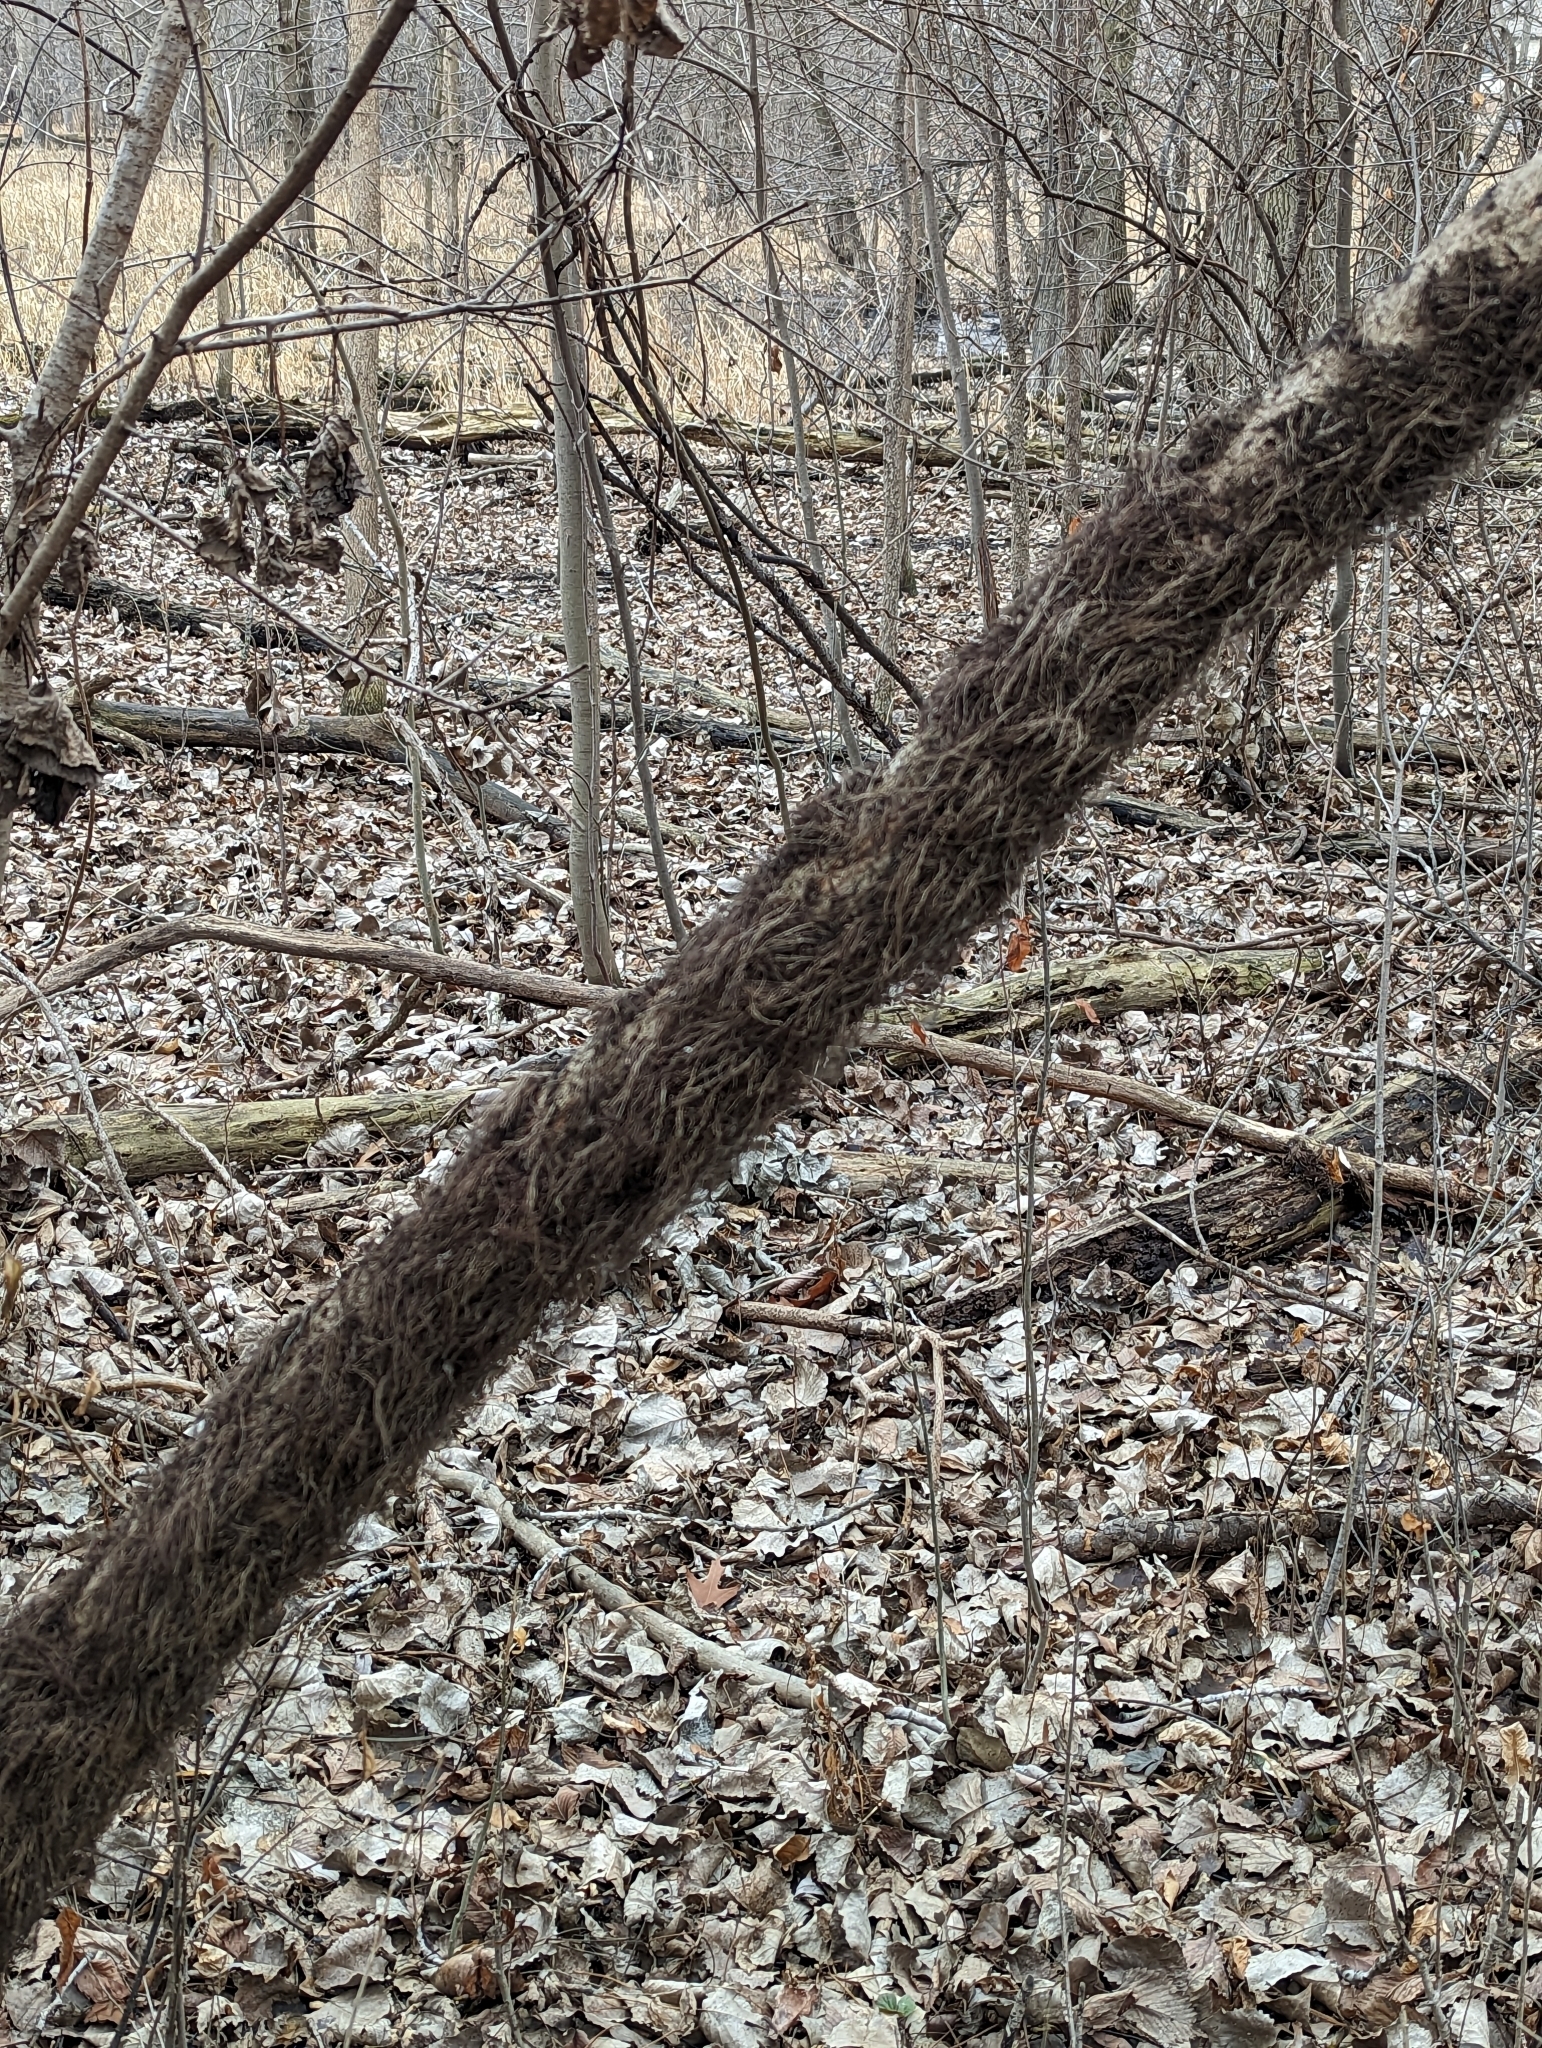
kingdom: Plantae
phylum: Tracheophyta
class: Magnoliopsida
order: Sapindales
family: Anacardiaceae
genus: Toxicodendron
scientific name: Toxicodendron radicans
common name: Poison ivy
